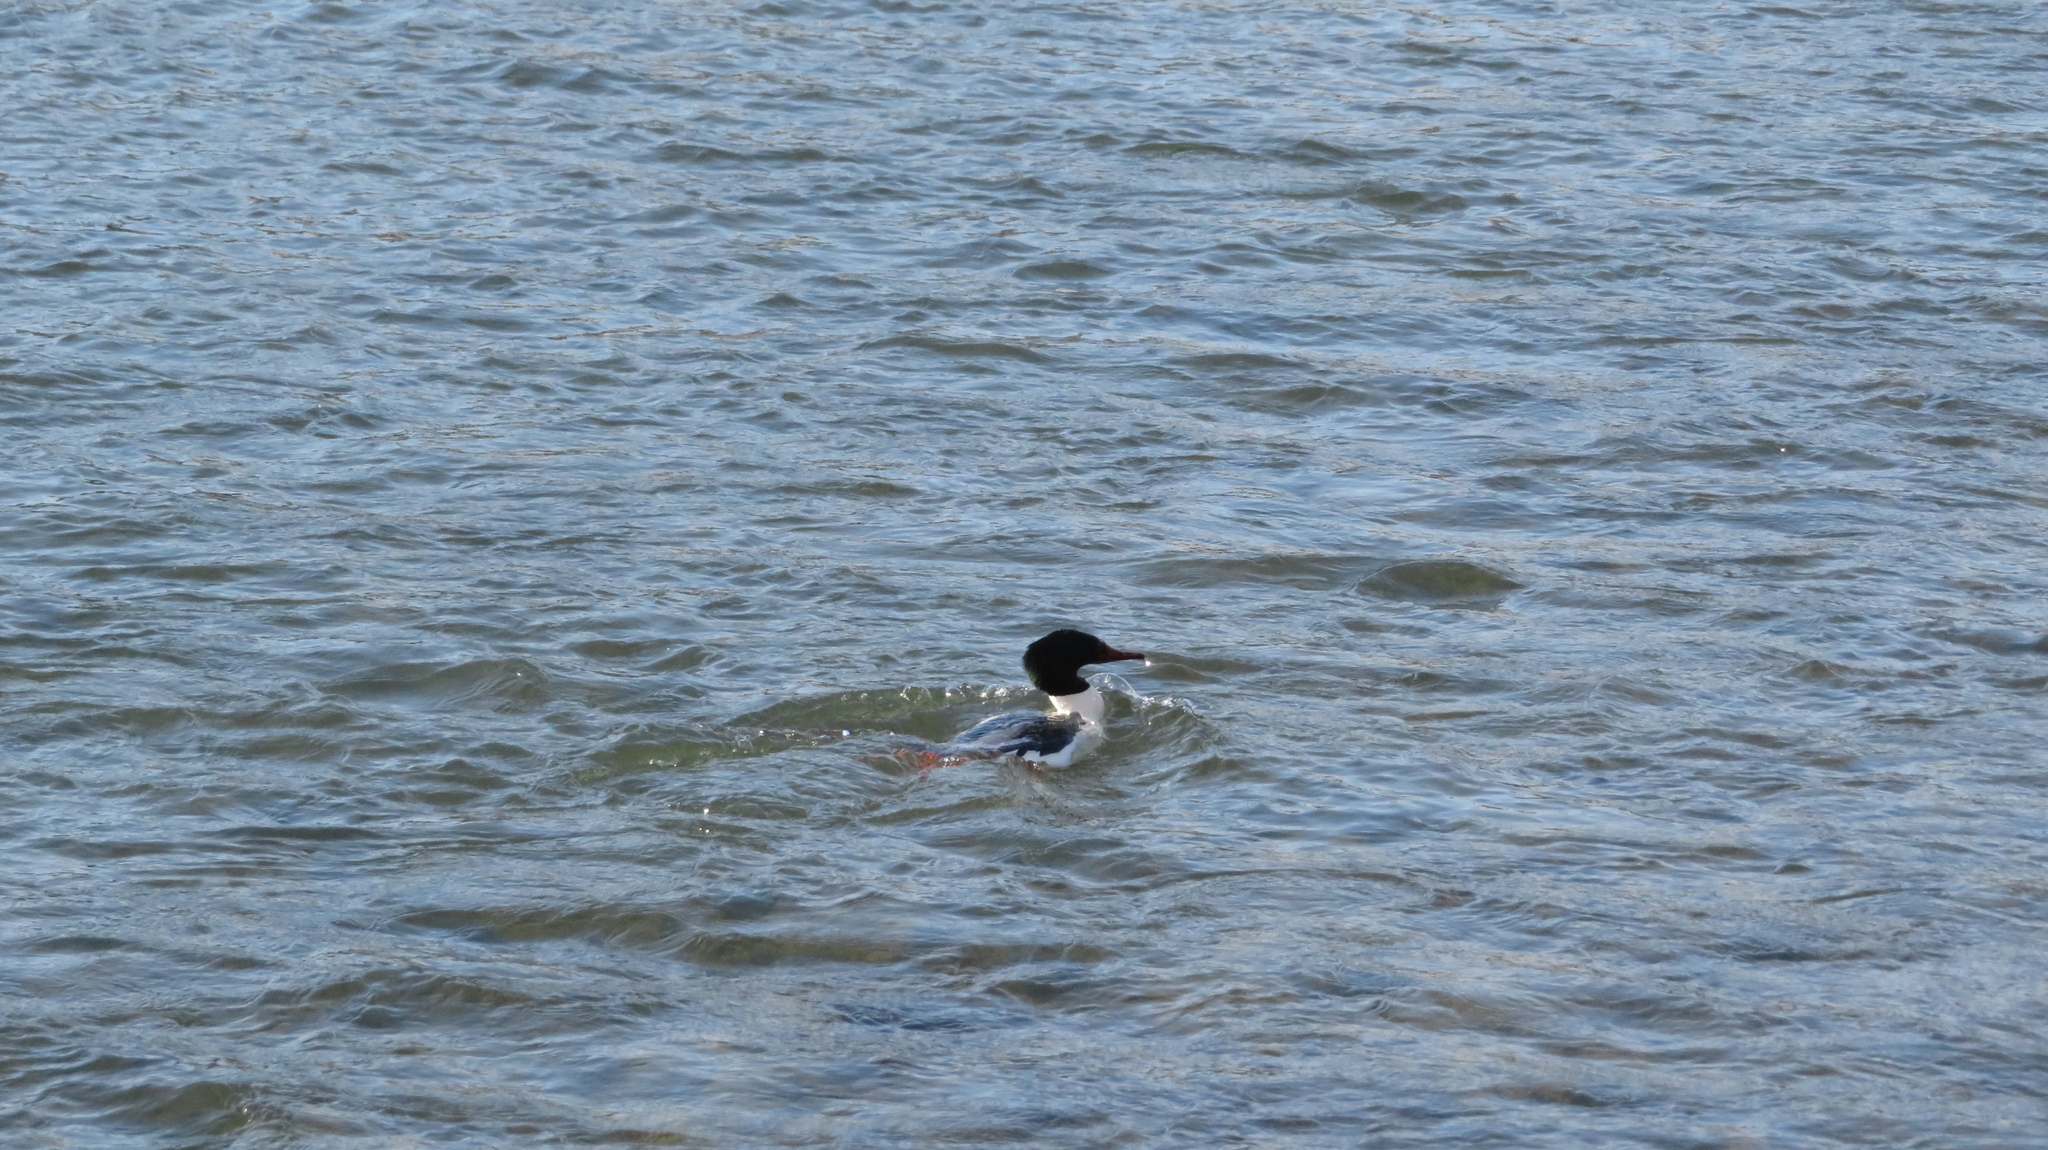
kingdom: Animalia
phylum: Chordata
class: Aves
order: Anseriformes
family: Anatidae
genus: Mergus
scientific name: Mergus merganser
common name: Common merganser
